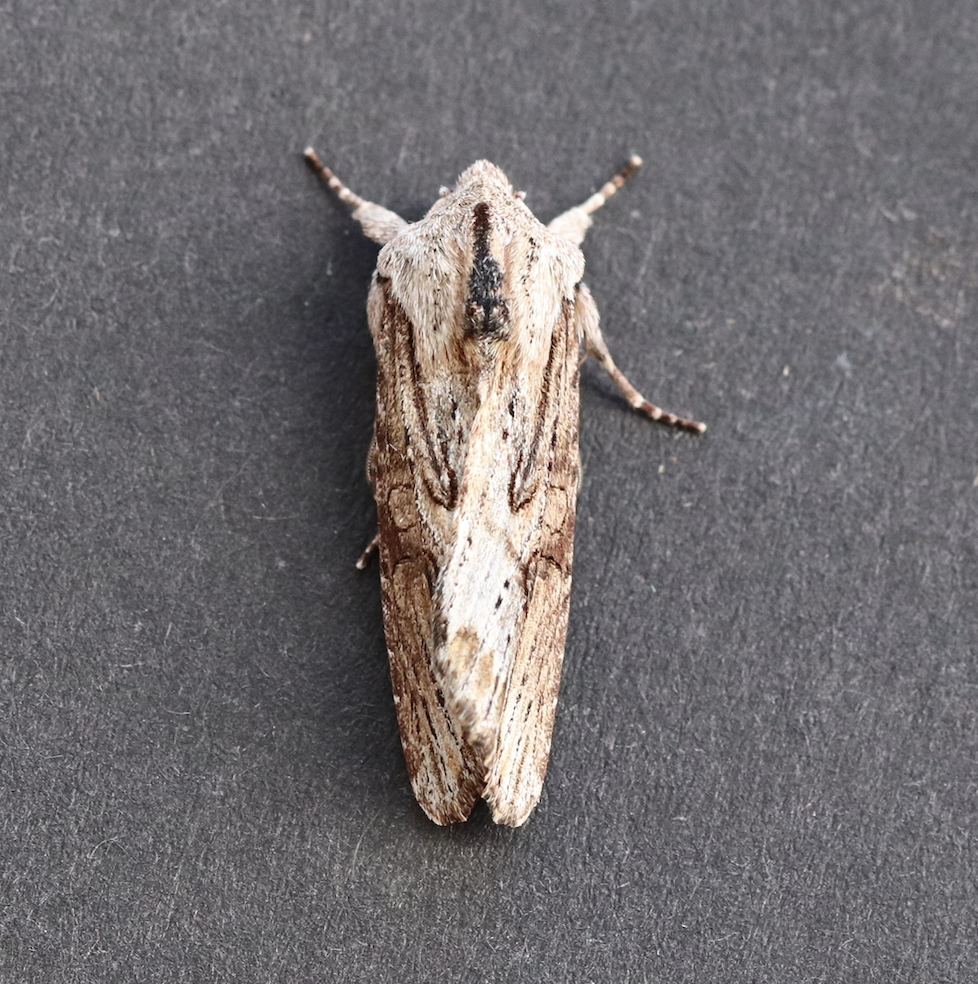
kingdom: Animalia
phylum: Arthropoda
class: Insecta
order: Lepidoptera
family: Noctuidae
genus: Egira
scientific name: Egira conspicillaris
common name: Silver cloud
